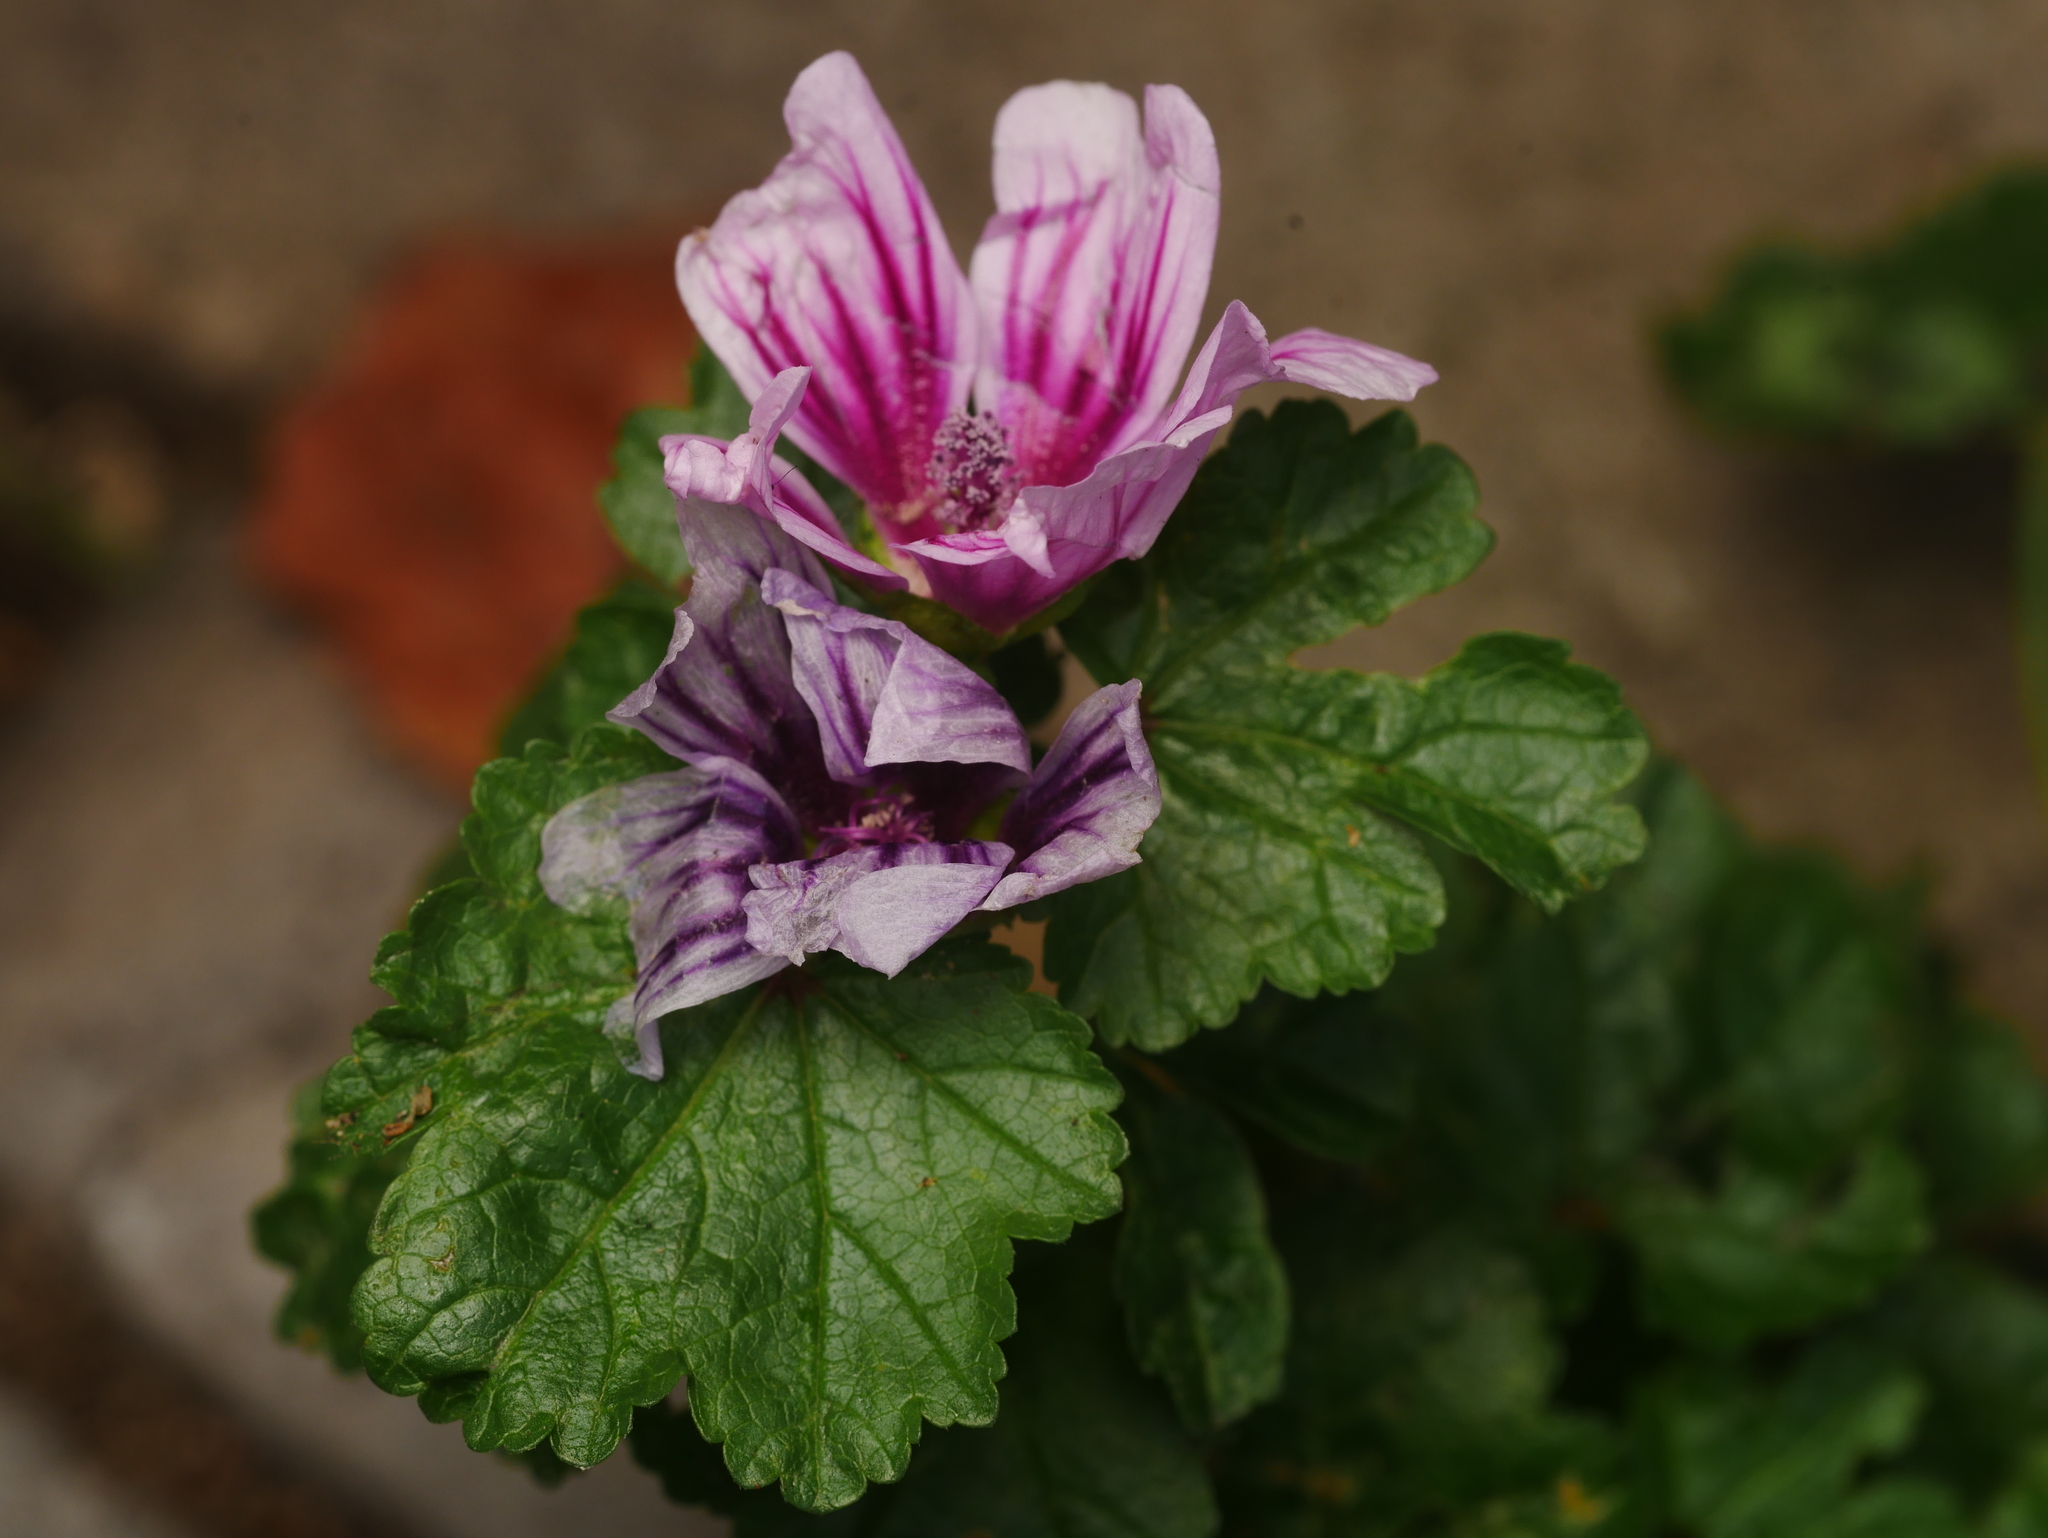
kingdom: Plantae
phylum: Tracheophyta
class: Magnoliopsida
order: Malvales
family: Malvaceae
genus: Malva
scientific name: Malva sylvestris
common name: Common mallow
